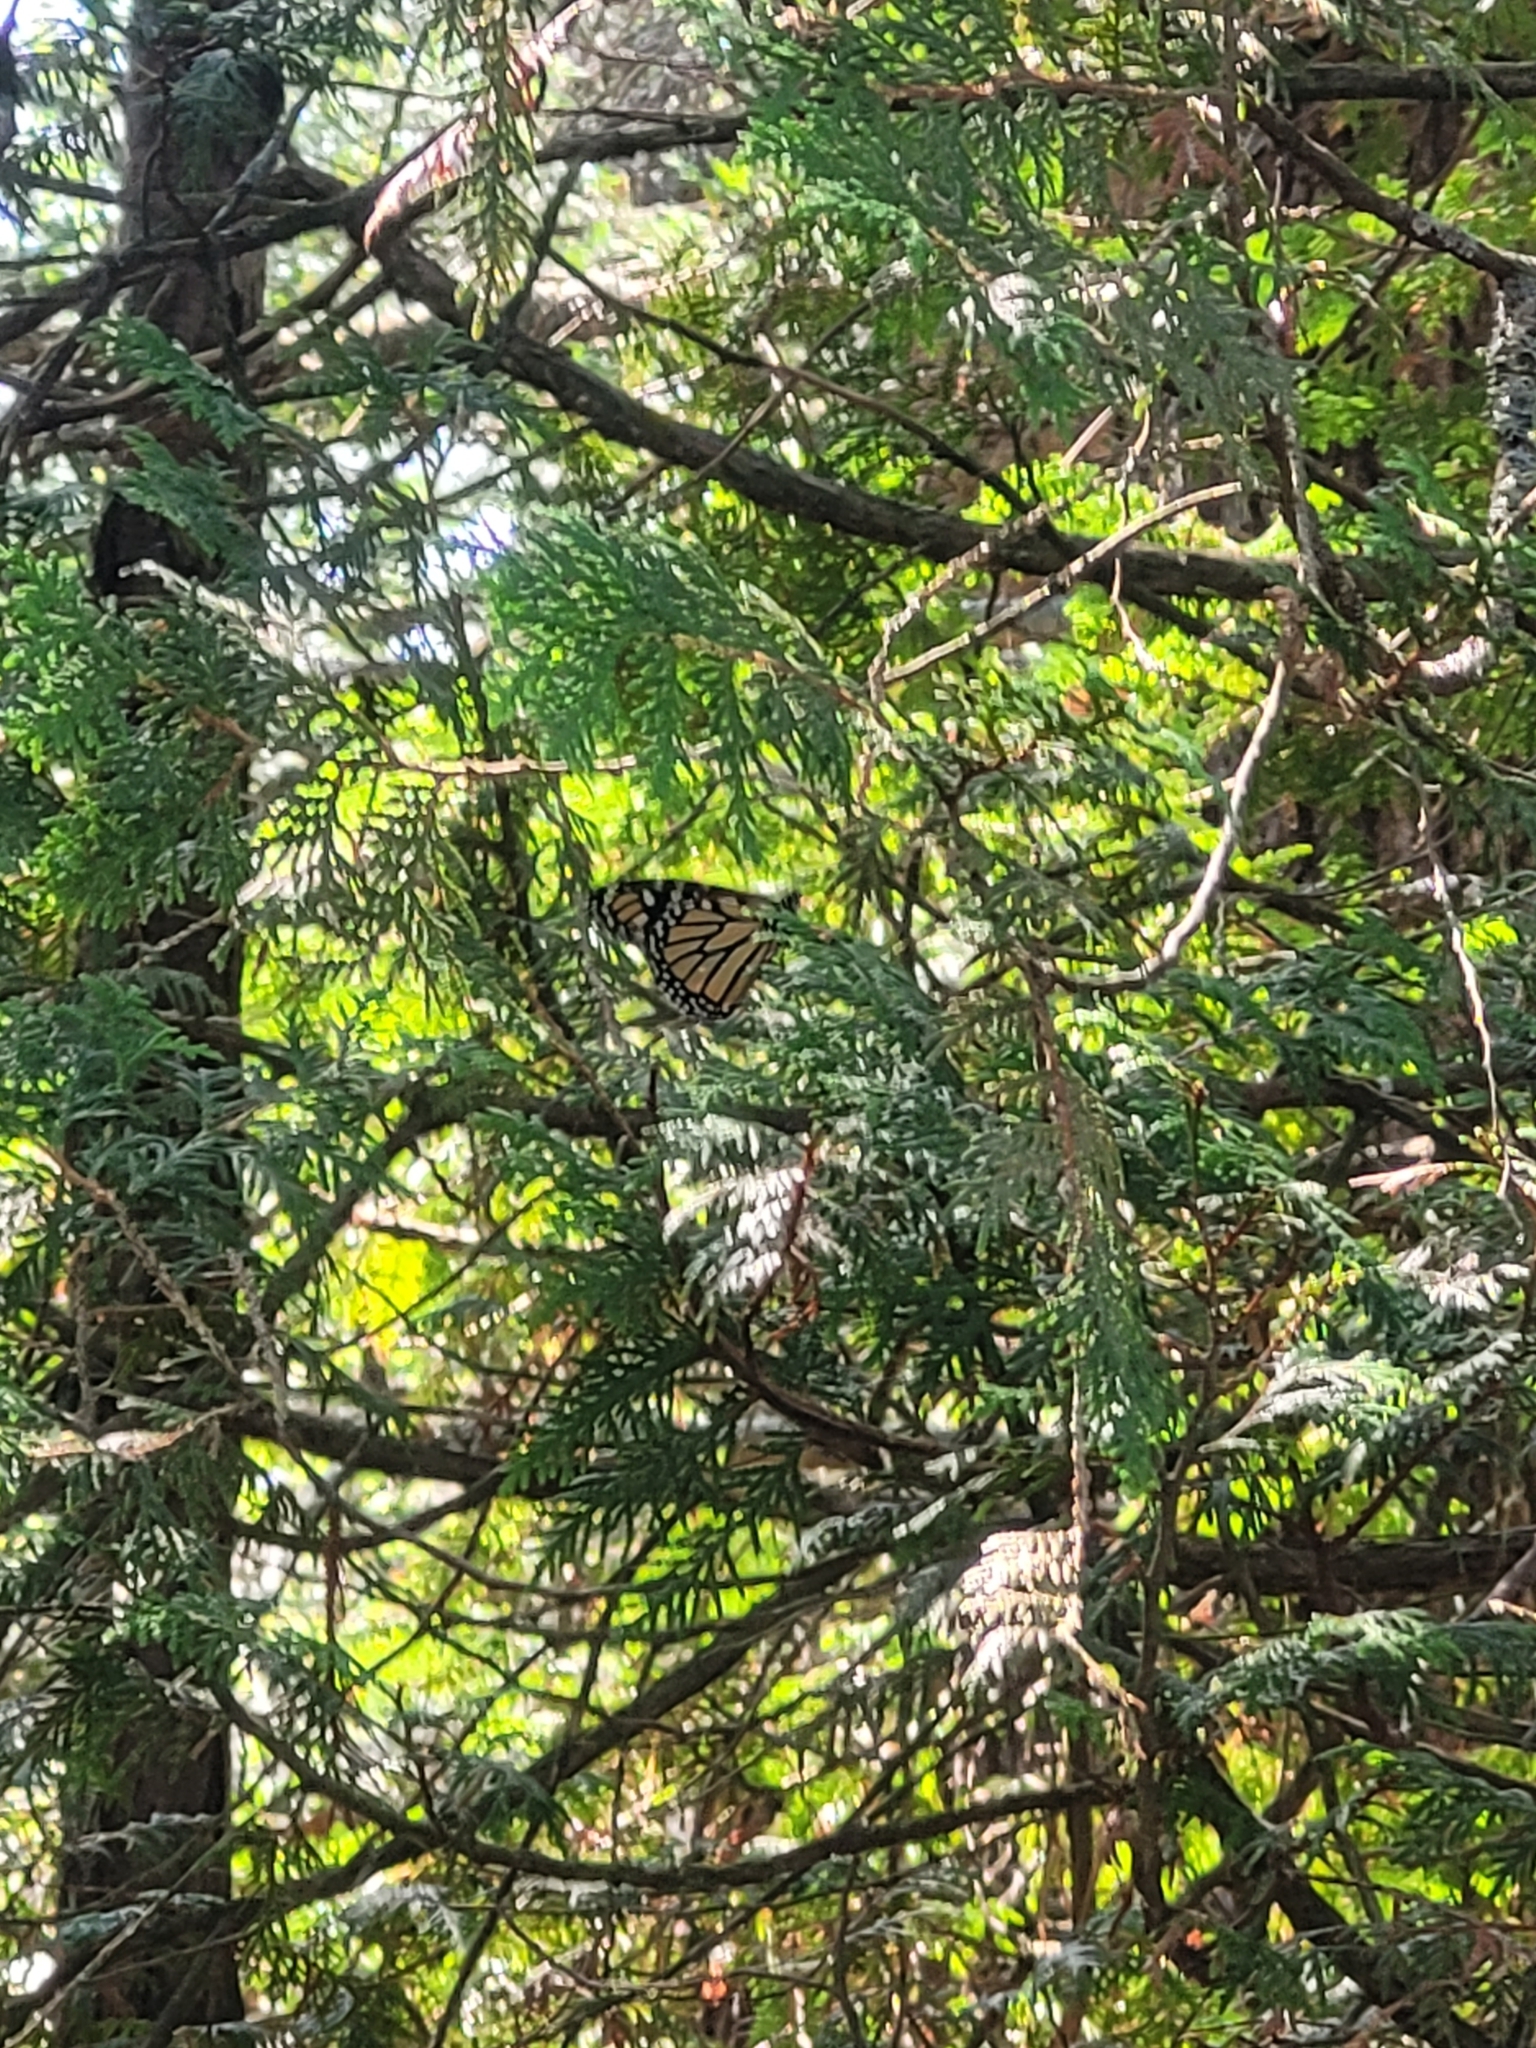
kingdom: Animalia
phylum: Arthropoda
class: Insecta
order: Lepidoptera
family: Nymphalidae
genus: Danaus
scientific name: Danaus plexippus
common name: Monarch
